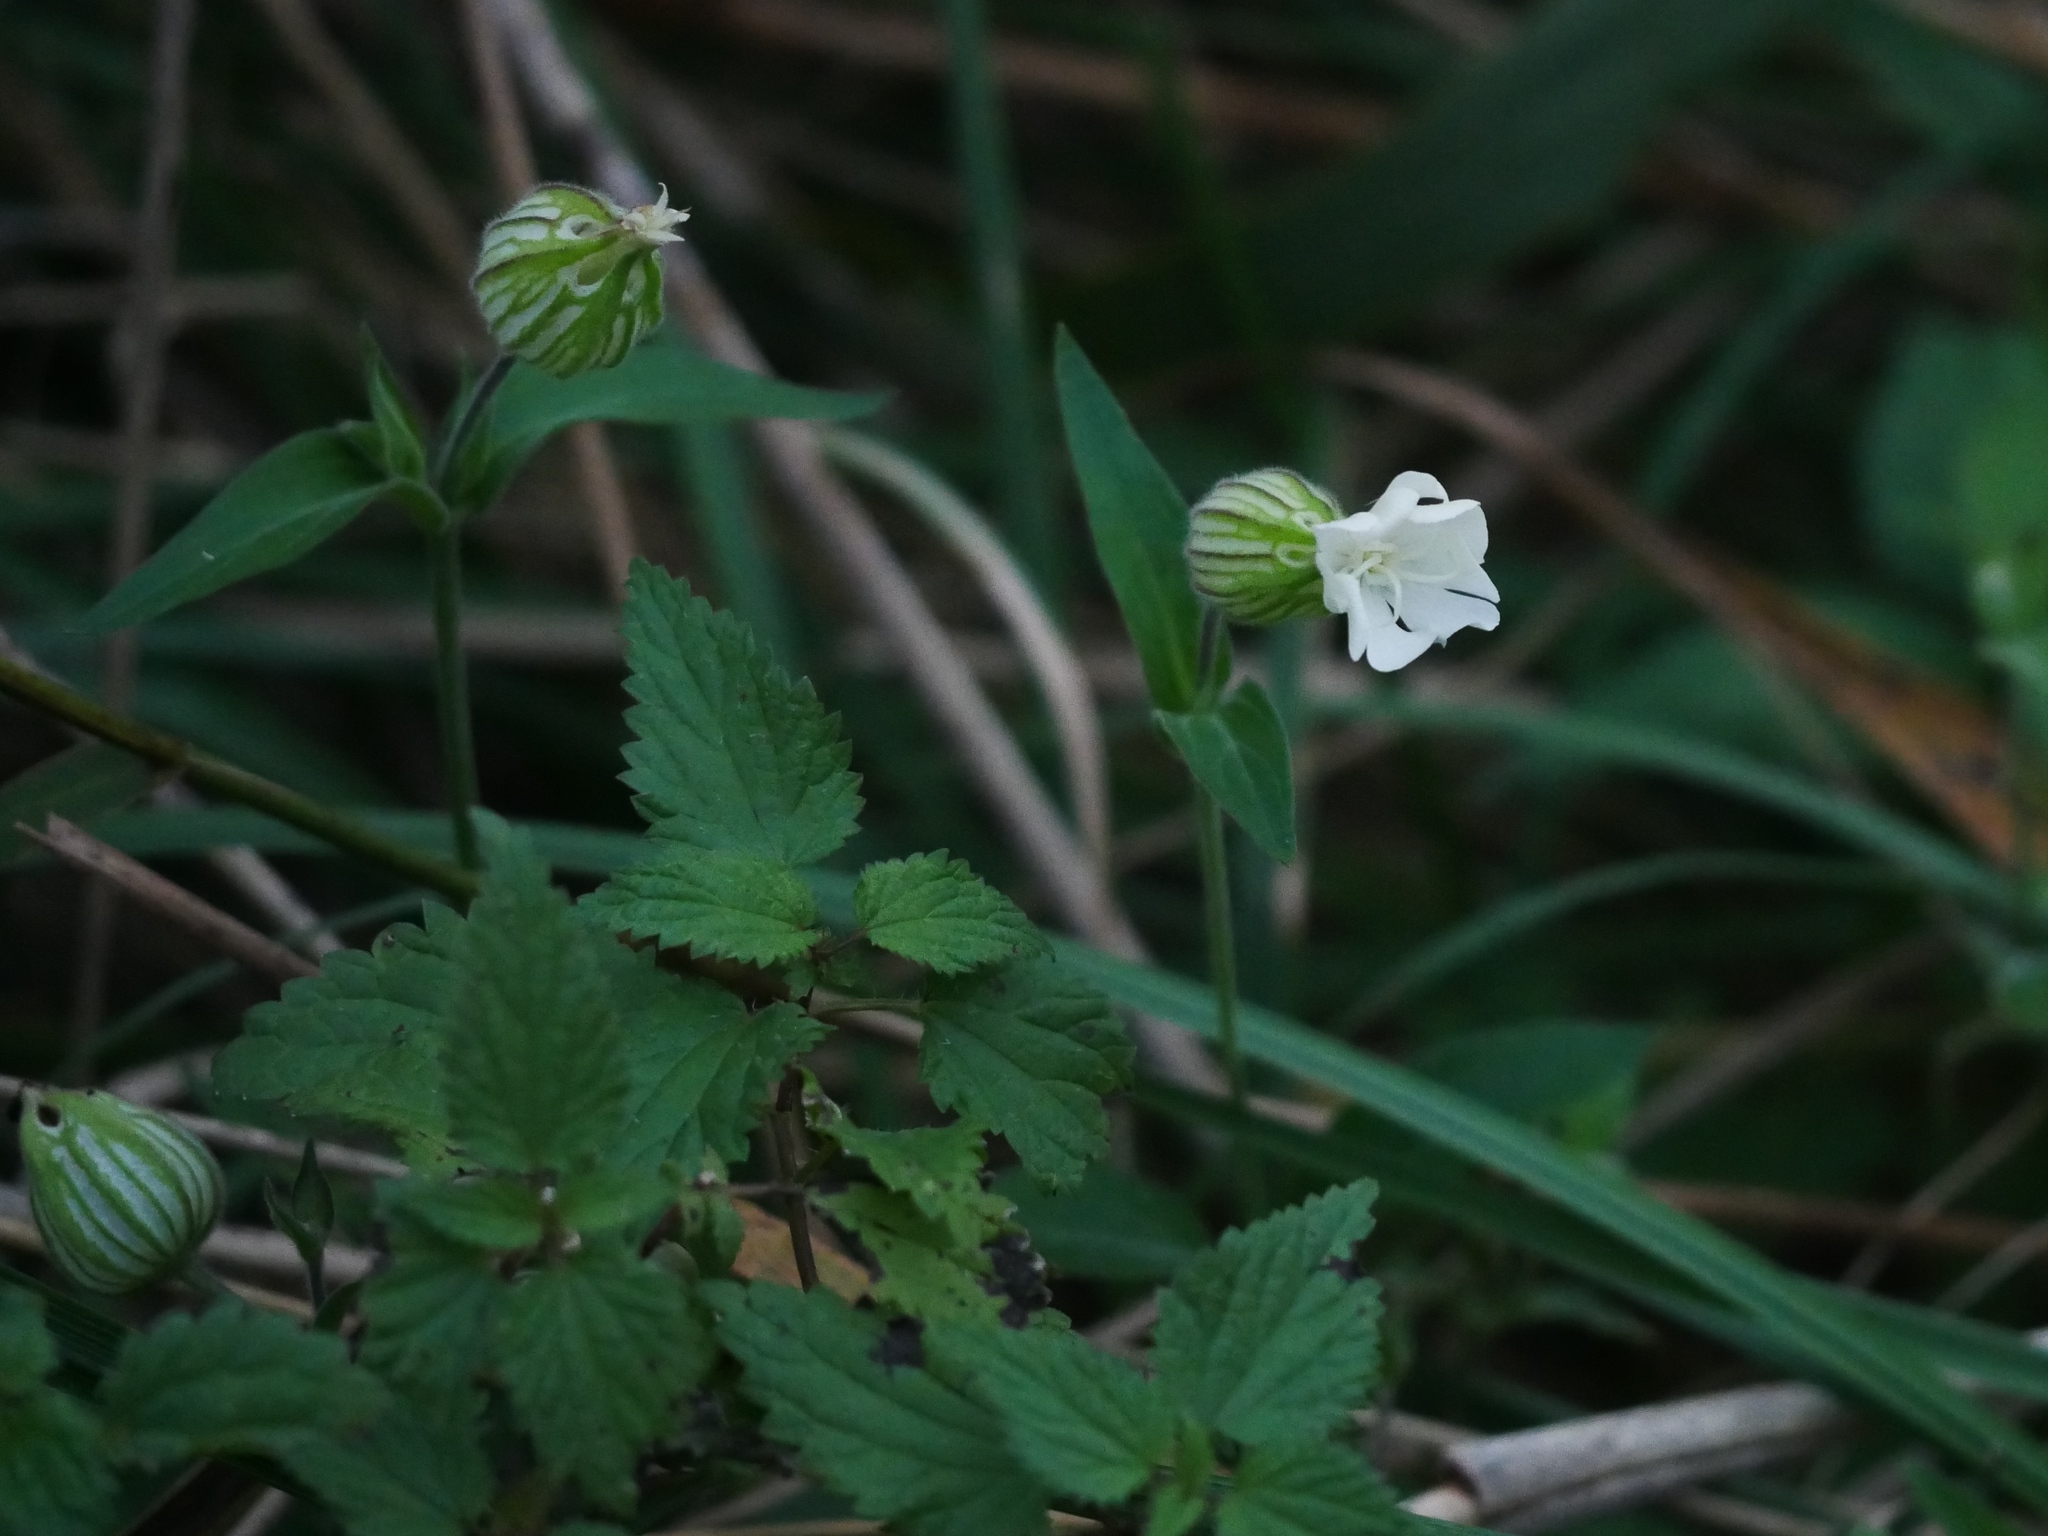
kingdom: Plantae
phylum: Tracheophyta
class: Magnoliopsida
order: Caryophyllales
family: Caryophyllaceae
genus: Silene
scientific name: Silene latifolia
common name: White campion
